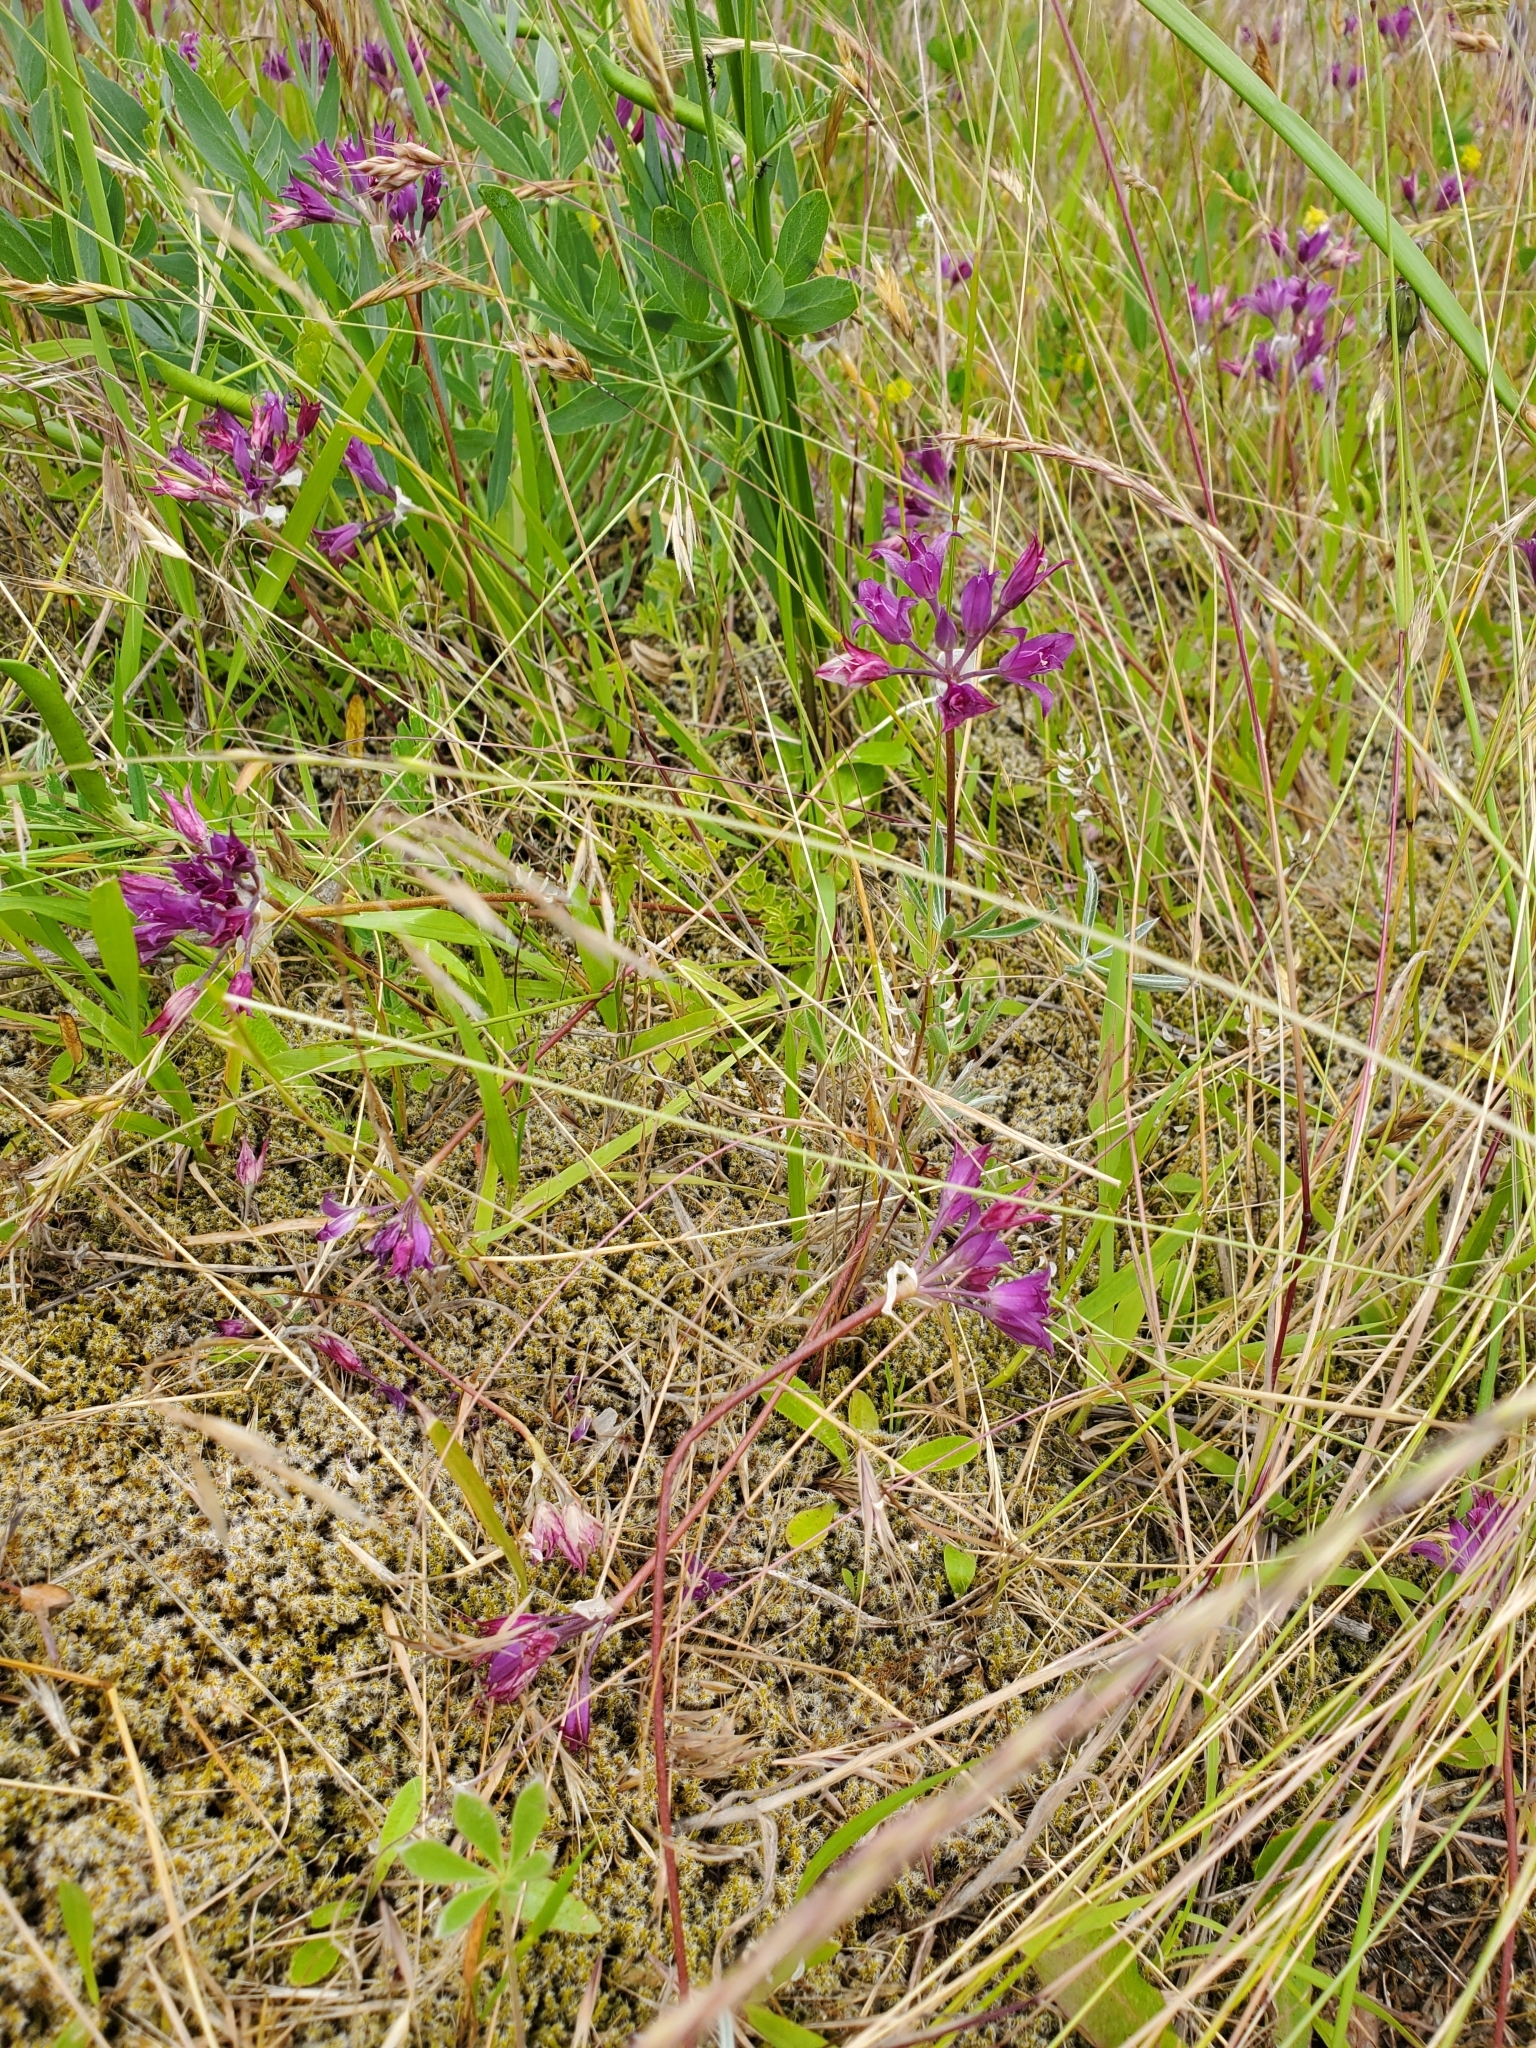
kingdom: Plantae
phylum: Tracheophyta
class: Liliopsida
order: Asparagales
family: Amaryllidaceae
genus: Allium
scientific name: Allium acuminatum
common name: Hooker's onion
